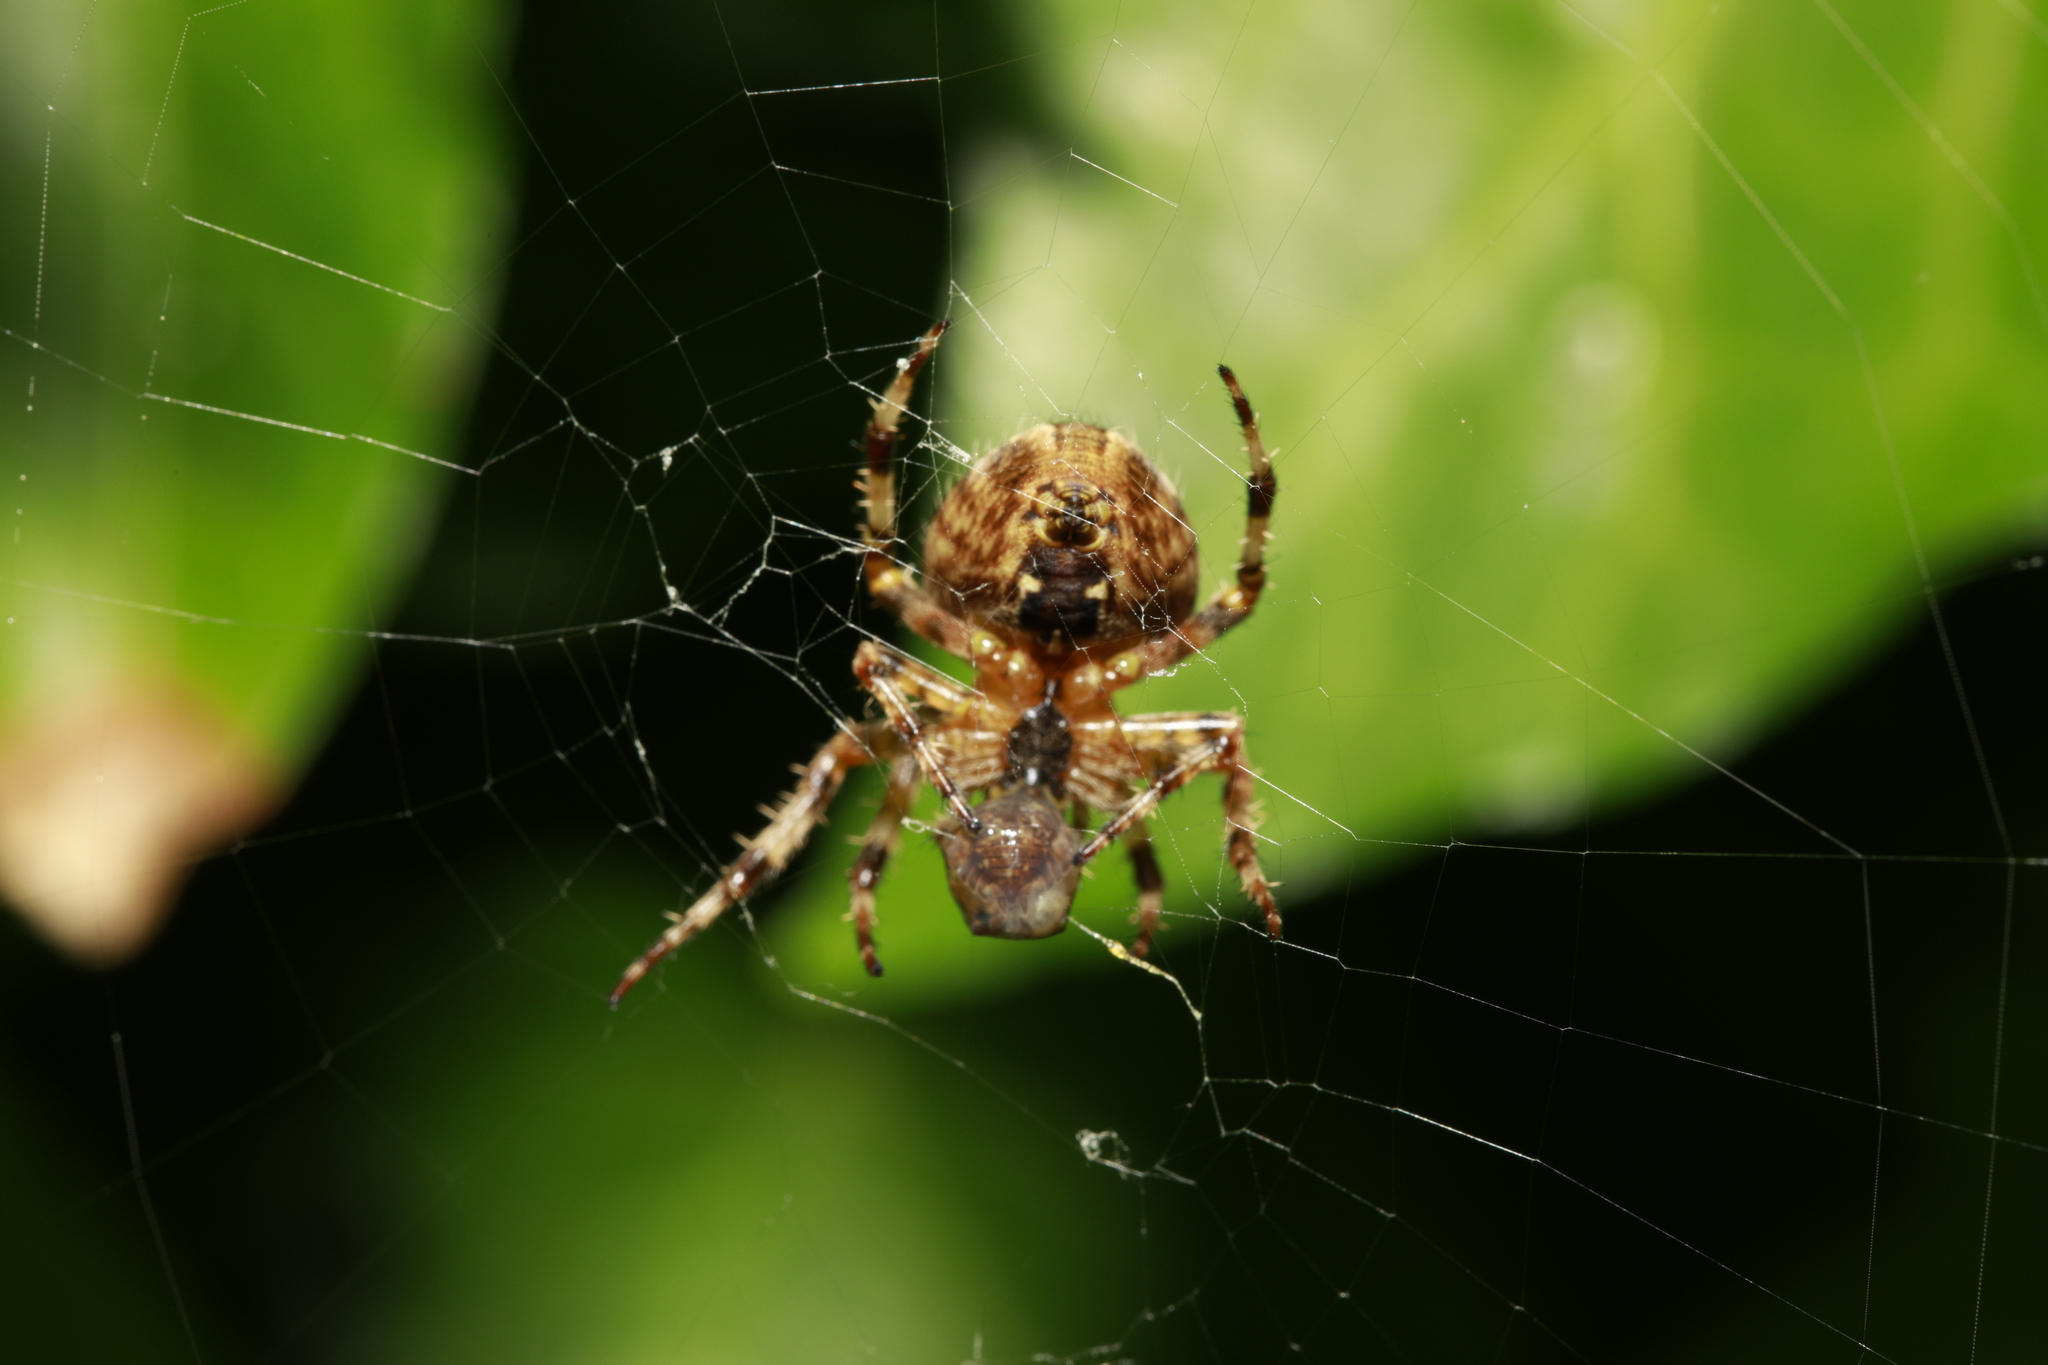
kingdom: Animalia
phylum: Arthropoda
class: Arachnida
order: Araneae
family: Araneidae
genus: Araneus
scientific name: Araneus diadematus
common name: Cross orbweaver
